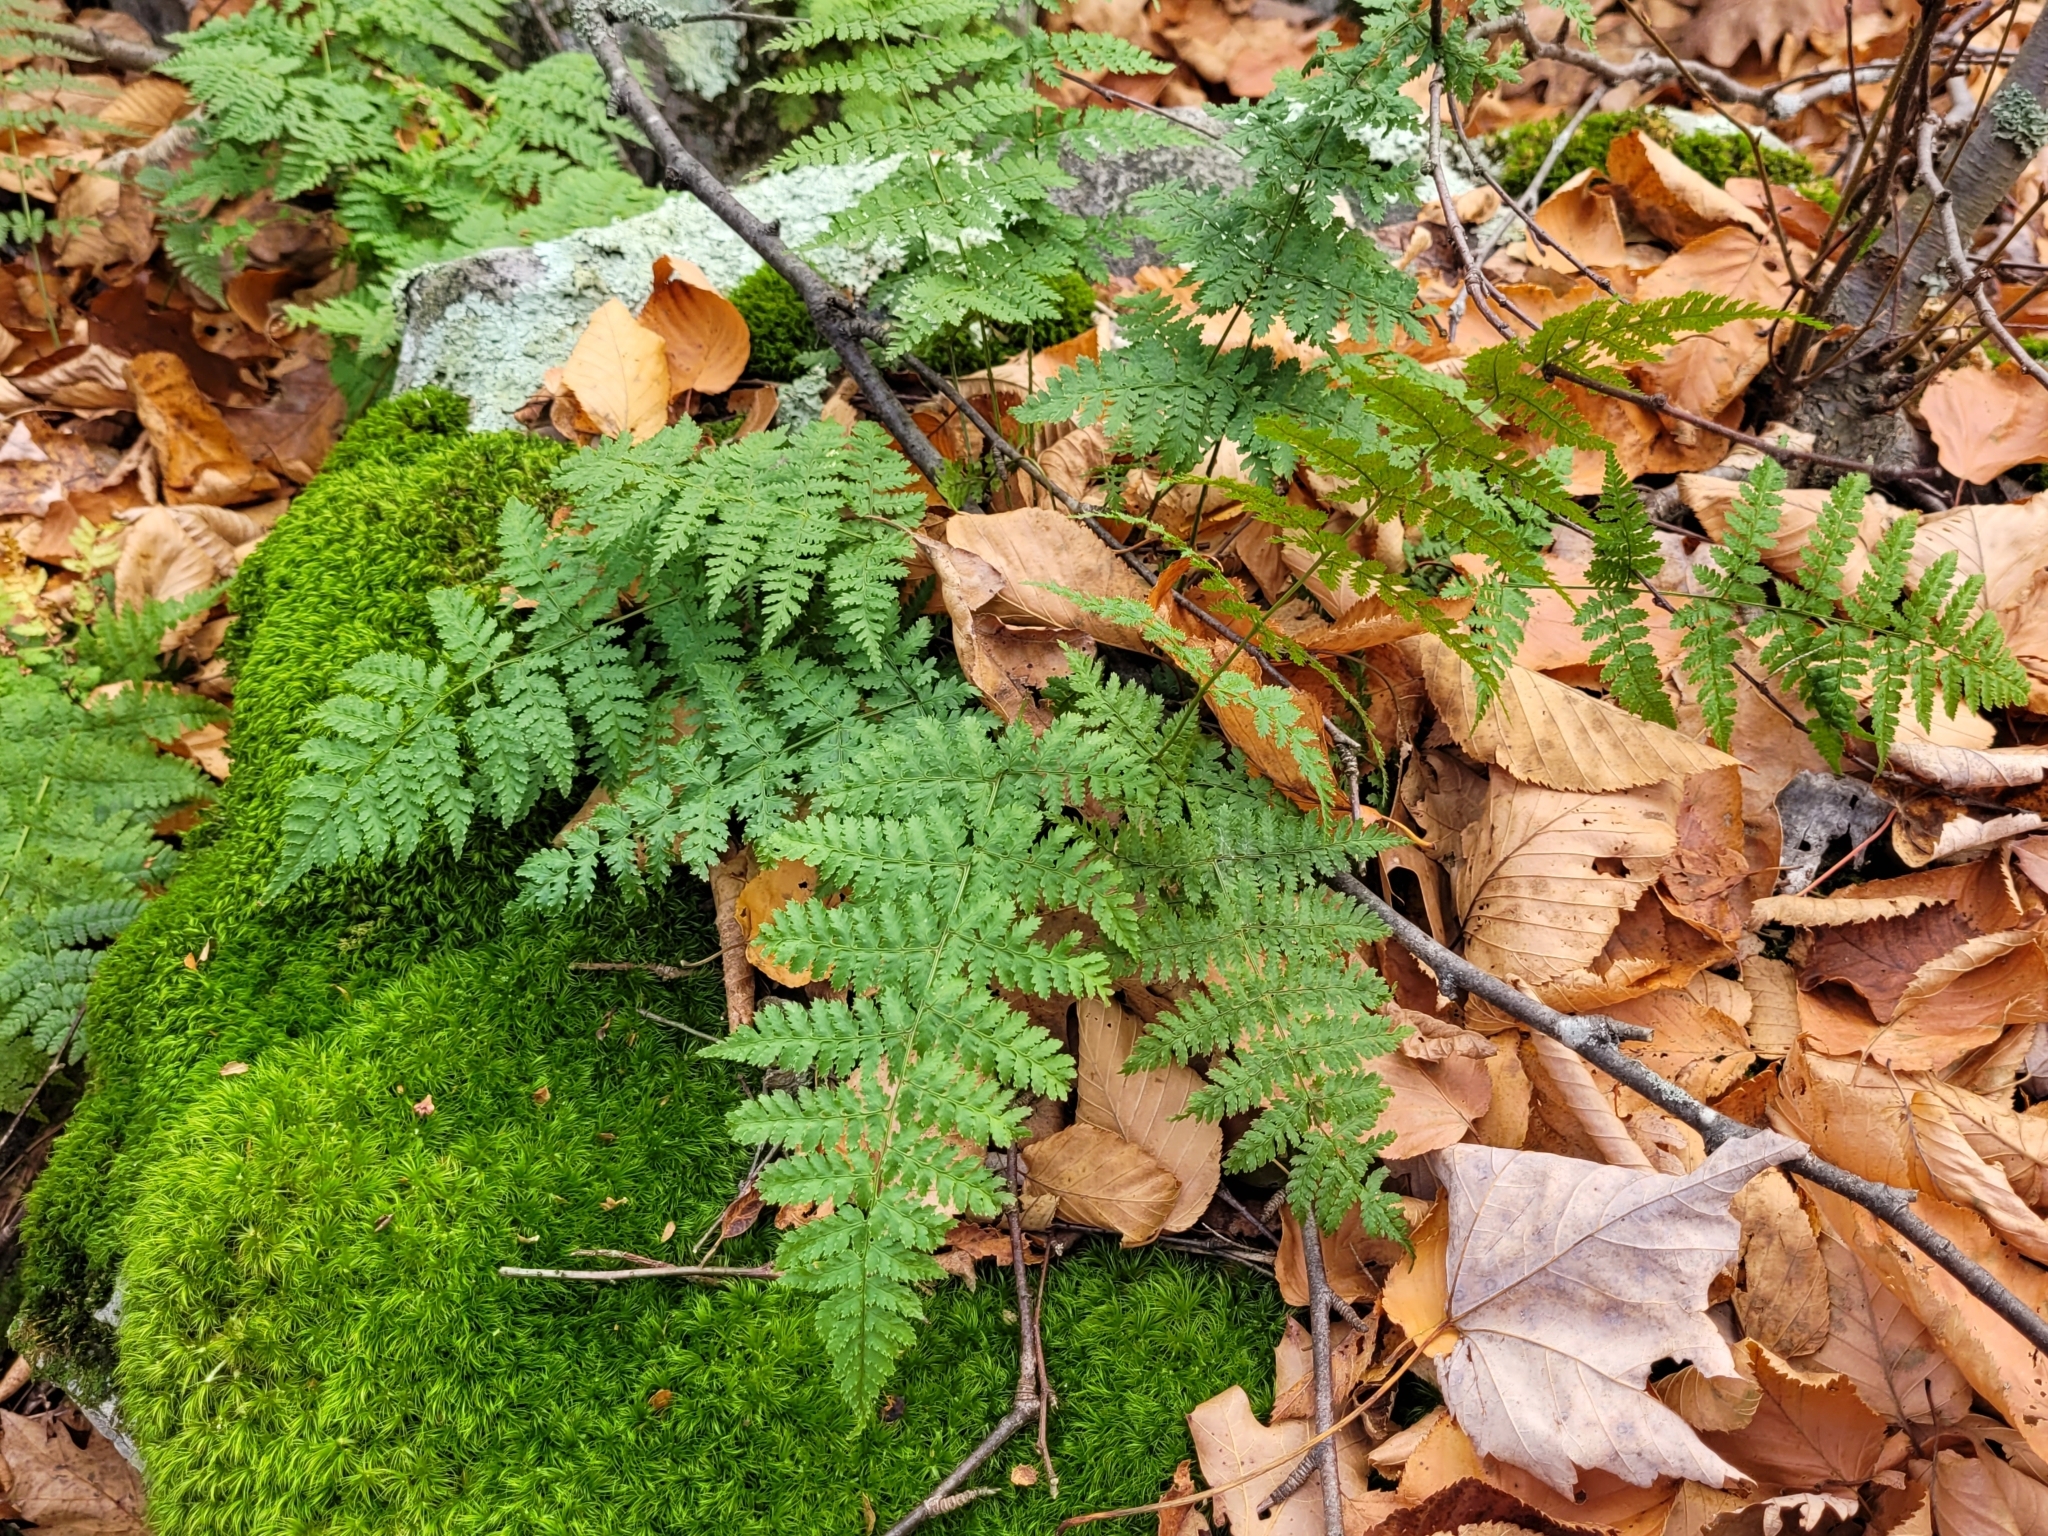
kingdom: Plantae
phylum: Tracheophyta
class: Polypodiopsida
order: Polypodiales
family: Dryopteridaceae
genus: Dryopteris
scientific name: Dryopteris intermedia
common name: Evergreen wood fern
